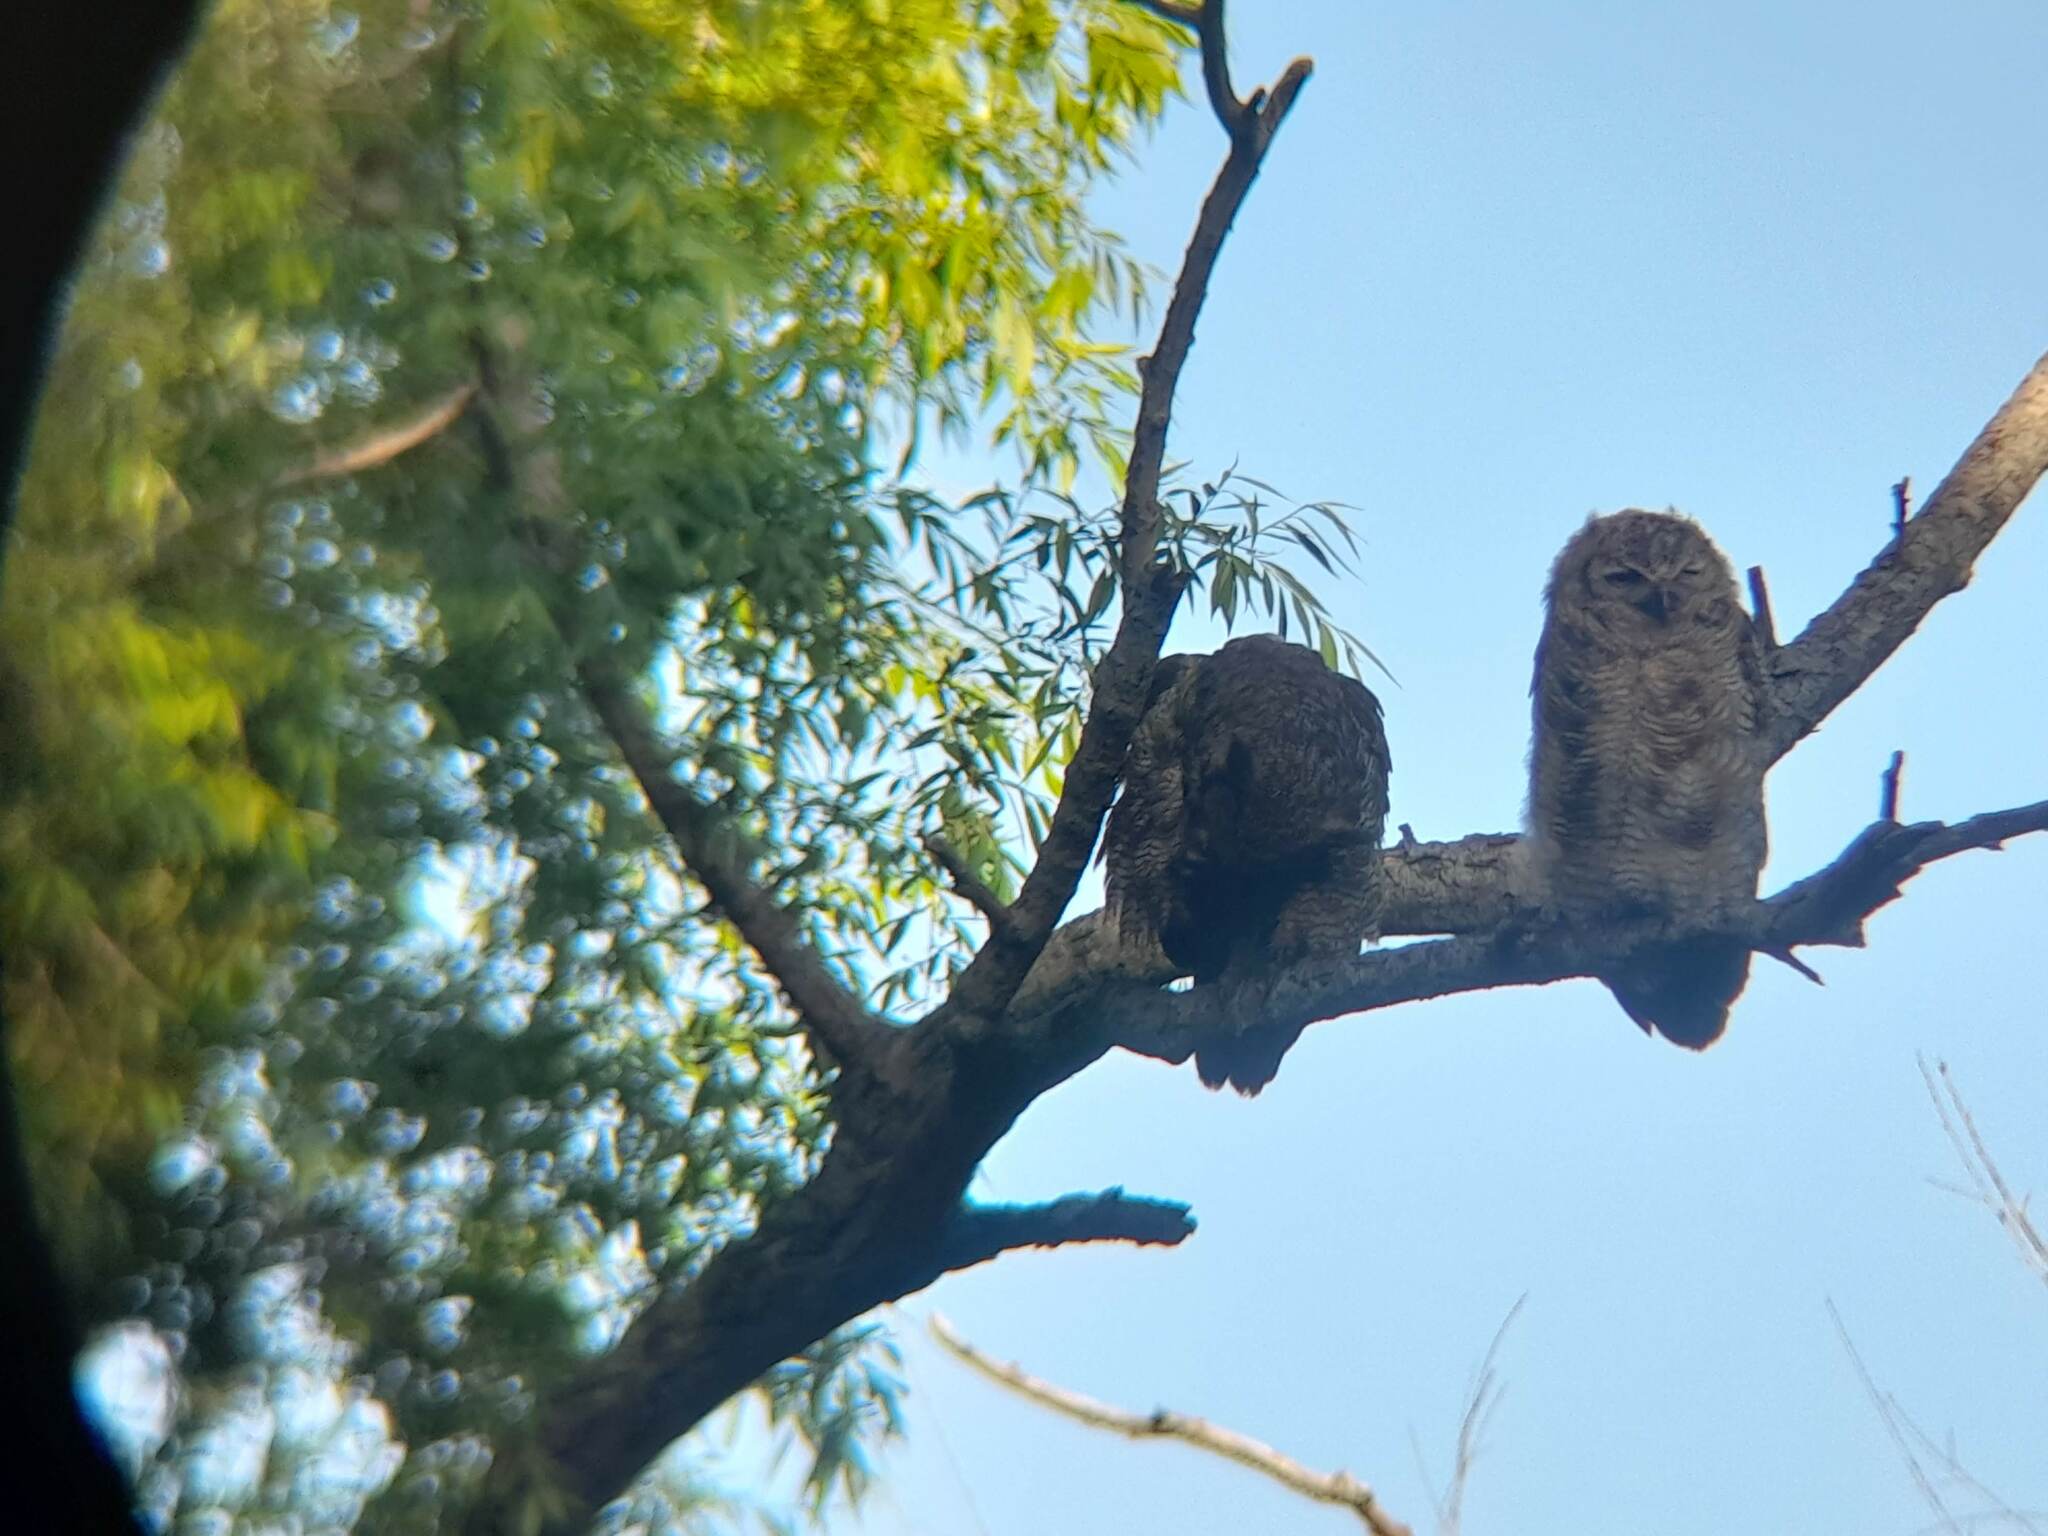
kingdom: Animalia
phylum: Chordata
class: Aves
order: Strigiformes
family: Strigidae
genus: Bubo
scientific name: Bubo virginianus
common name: Great horned owl
